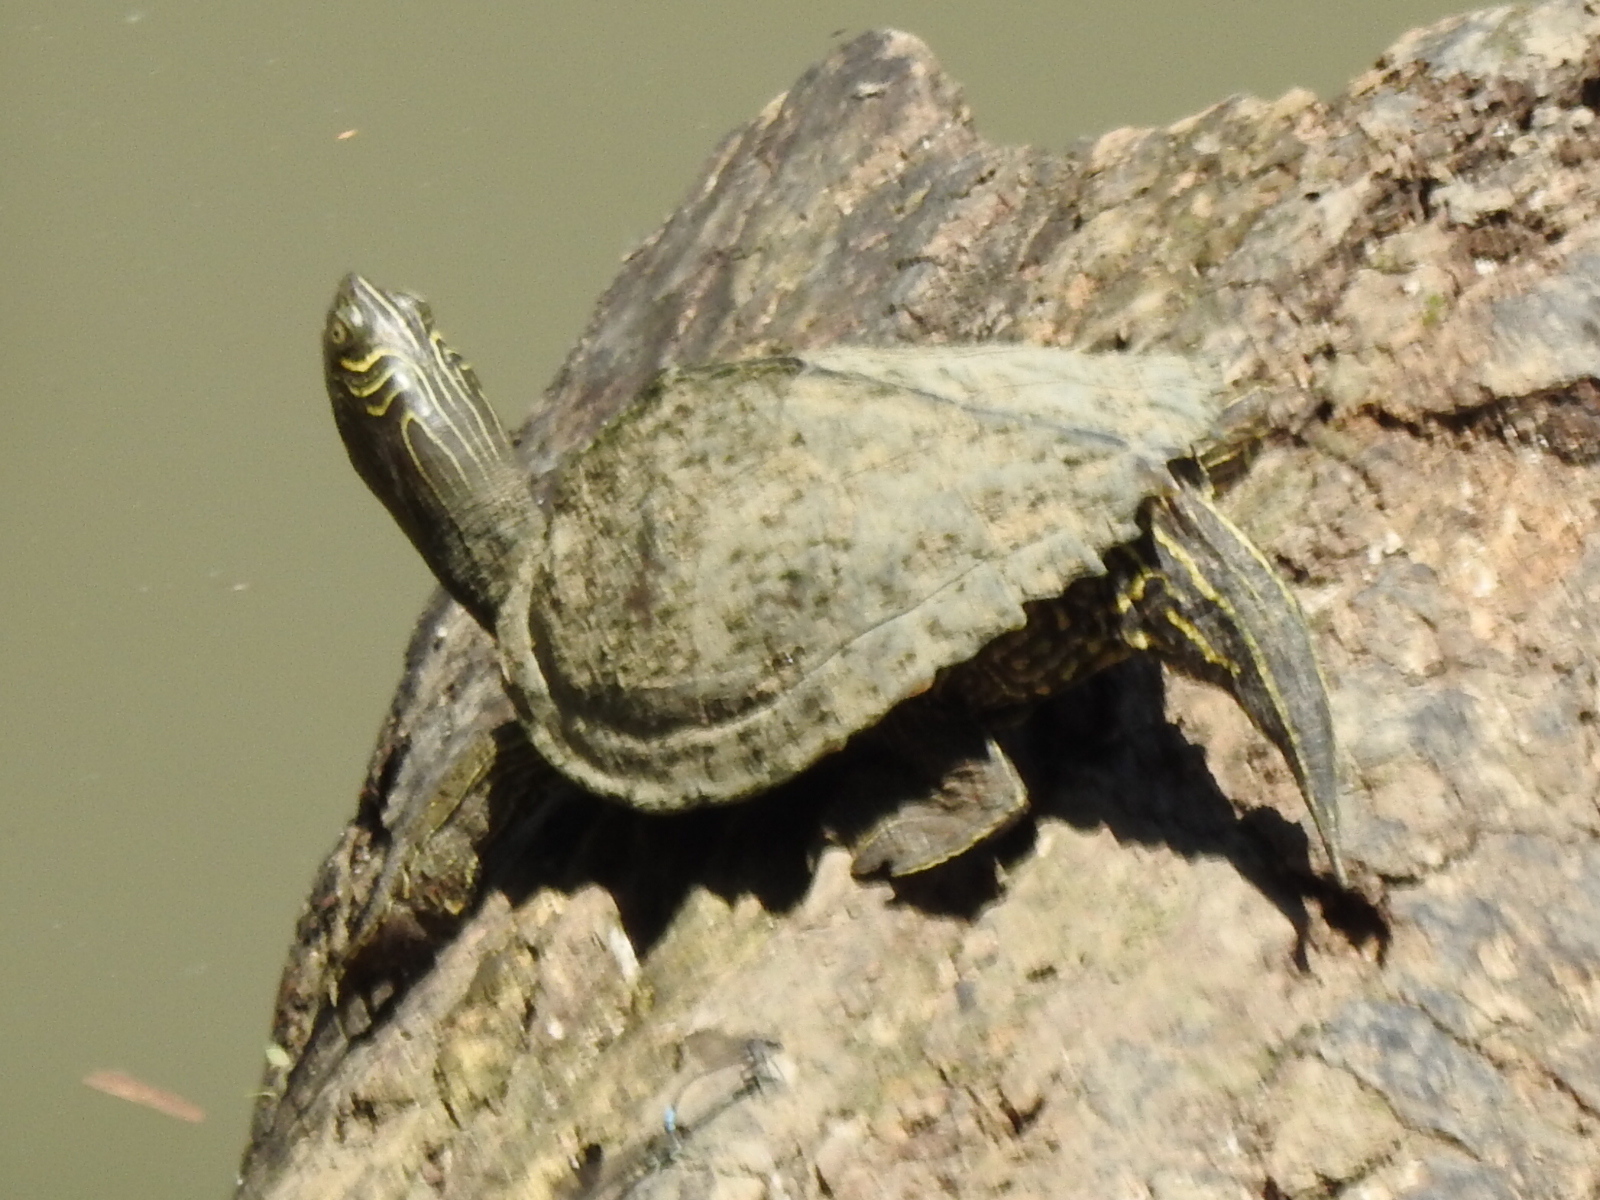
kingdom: Animalia
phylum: Chordata
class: Testudines
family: Emydidae
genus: Graptemys
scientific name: Graptemys pseudogeographica
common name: False map turtle
